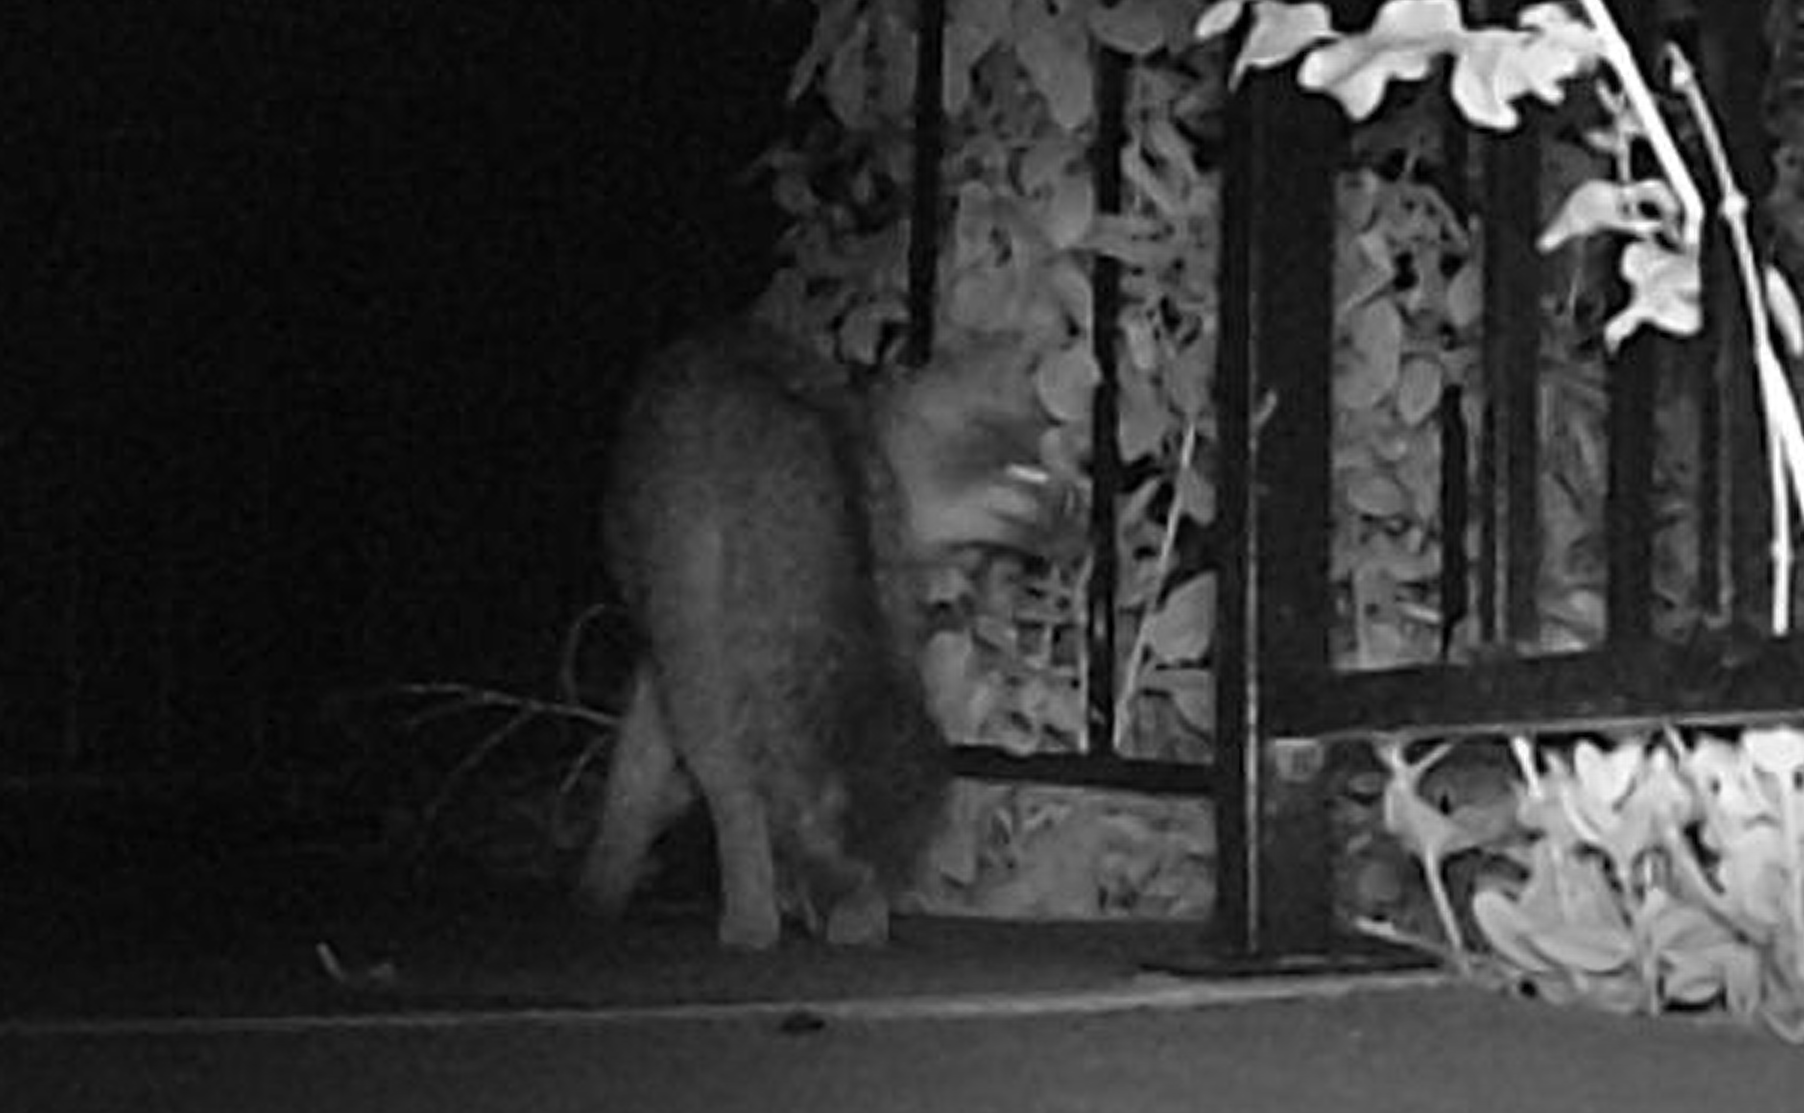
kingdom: Animalia
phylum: Chordata
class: Mammalia
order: Carnivora
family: Canidae
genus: Urocyon
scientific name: Urocyon cinereoargenteus
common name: Gray fox
